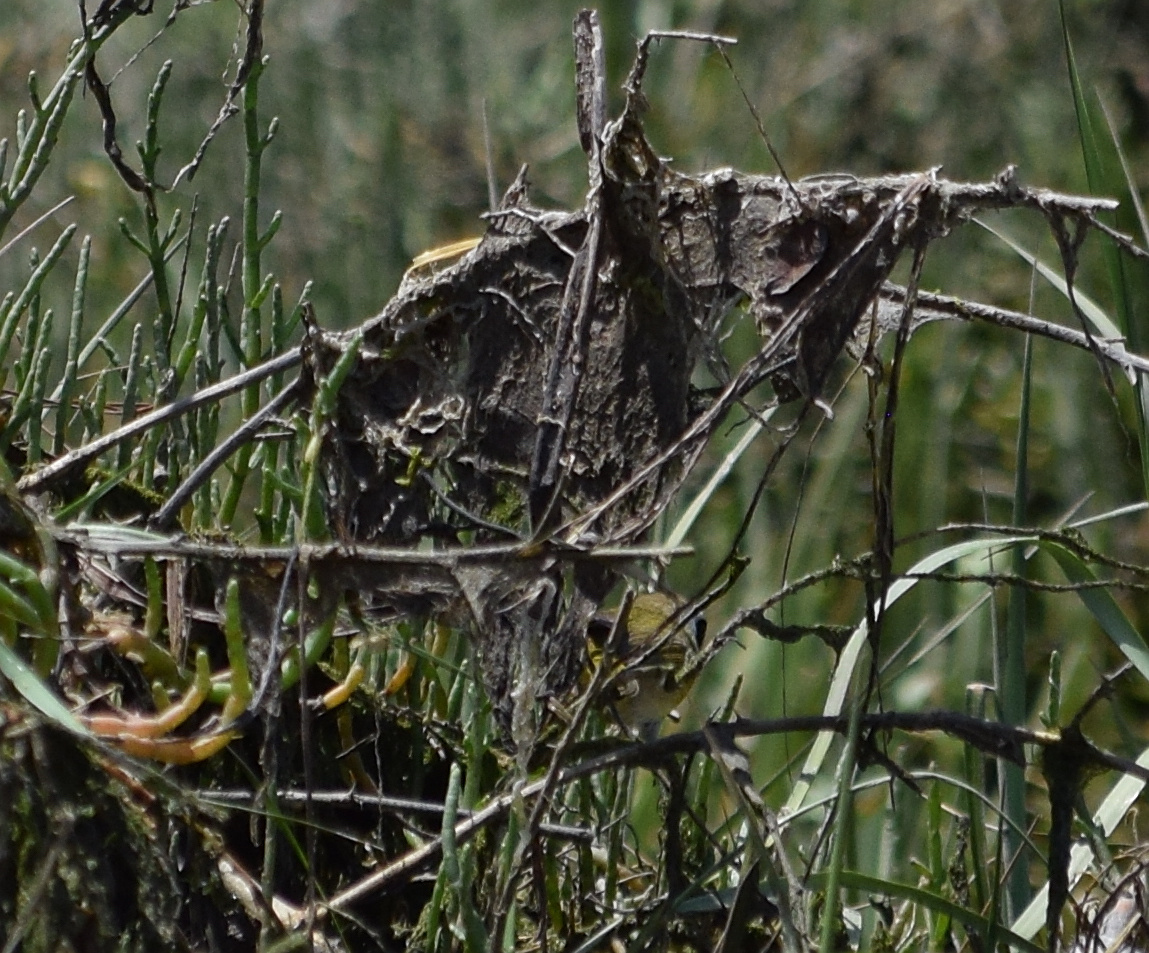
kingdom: Animalia
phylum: Chordata
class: Aves
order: Passeriformes
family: Parulidae
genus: Geothlypis
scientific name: Geothlypis trichas
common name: Common yellowthroat
